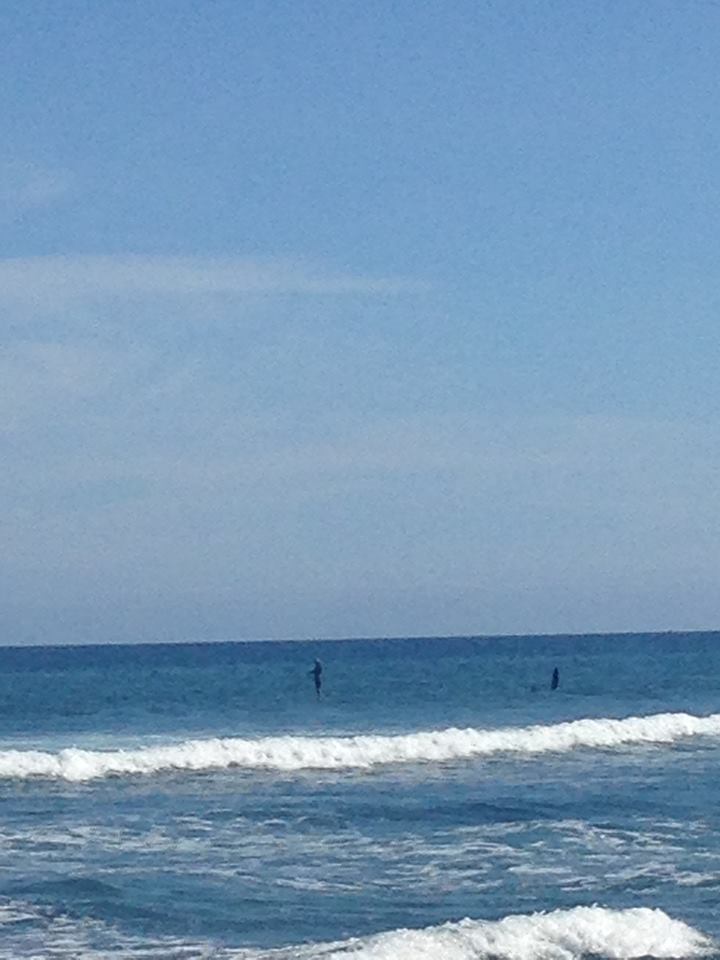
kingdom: Animalia
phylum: Chordata
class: Mammalia
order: Cetacea
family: Delphinidae
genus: Orcinus
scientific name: Orcinus orca
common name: Killer whale
